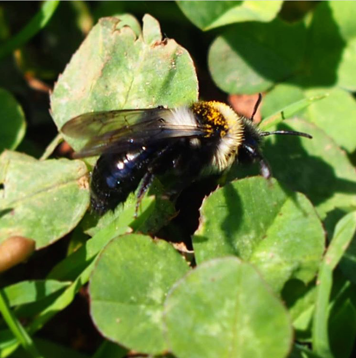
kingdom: Animalia
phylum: Arthropoda
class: Insecta
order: Hymenoptera
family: Andrenidae
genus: Andrena
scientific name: Andrena cineraria
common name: Ashy mining bee
